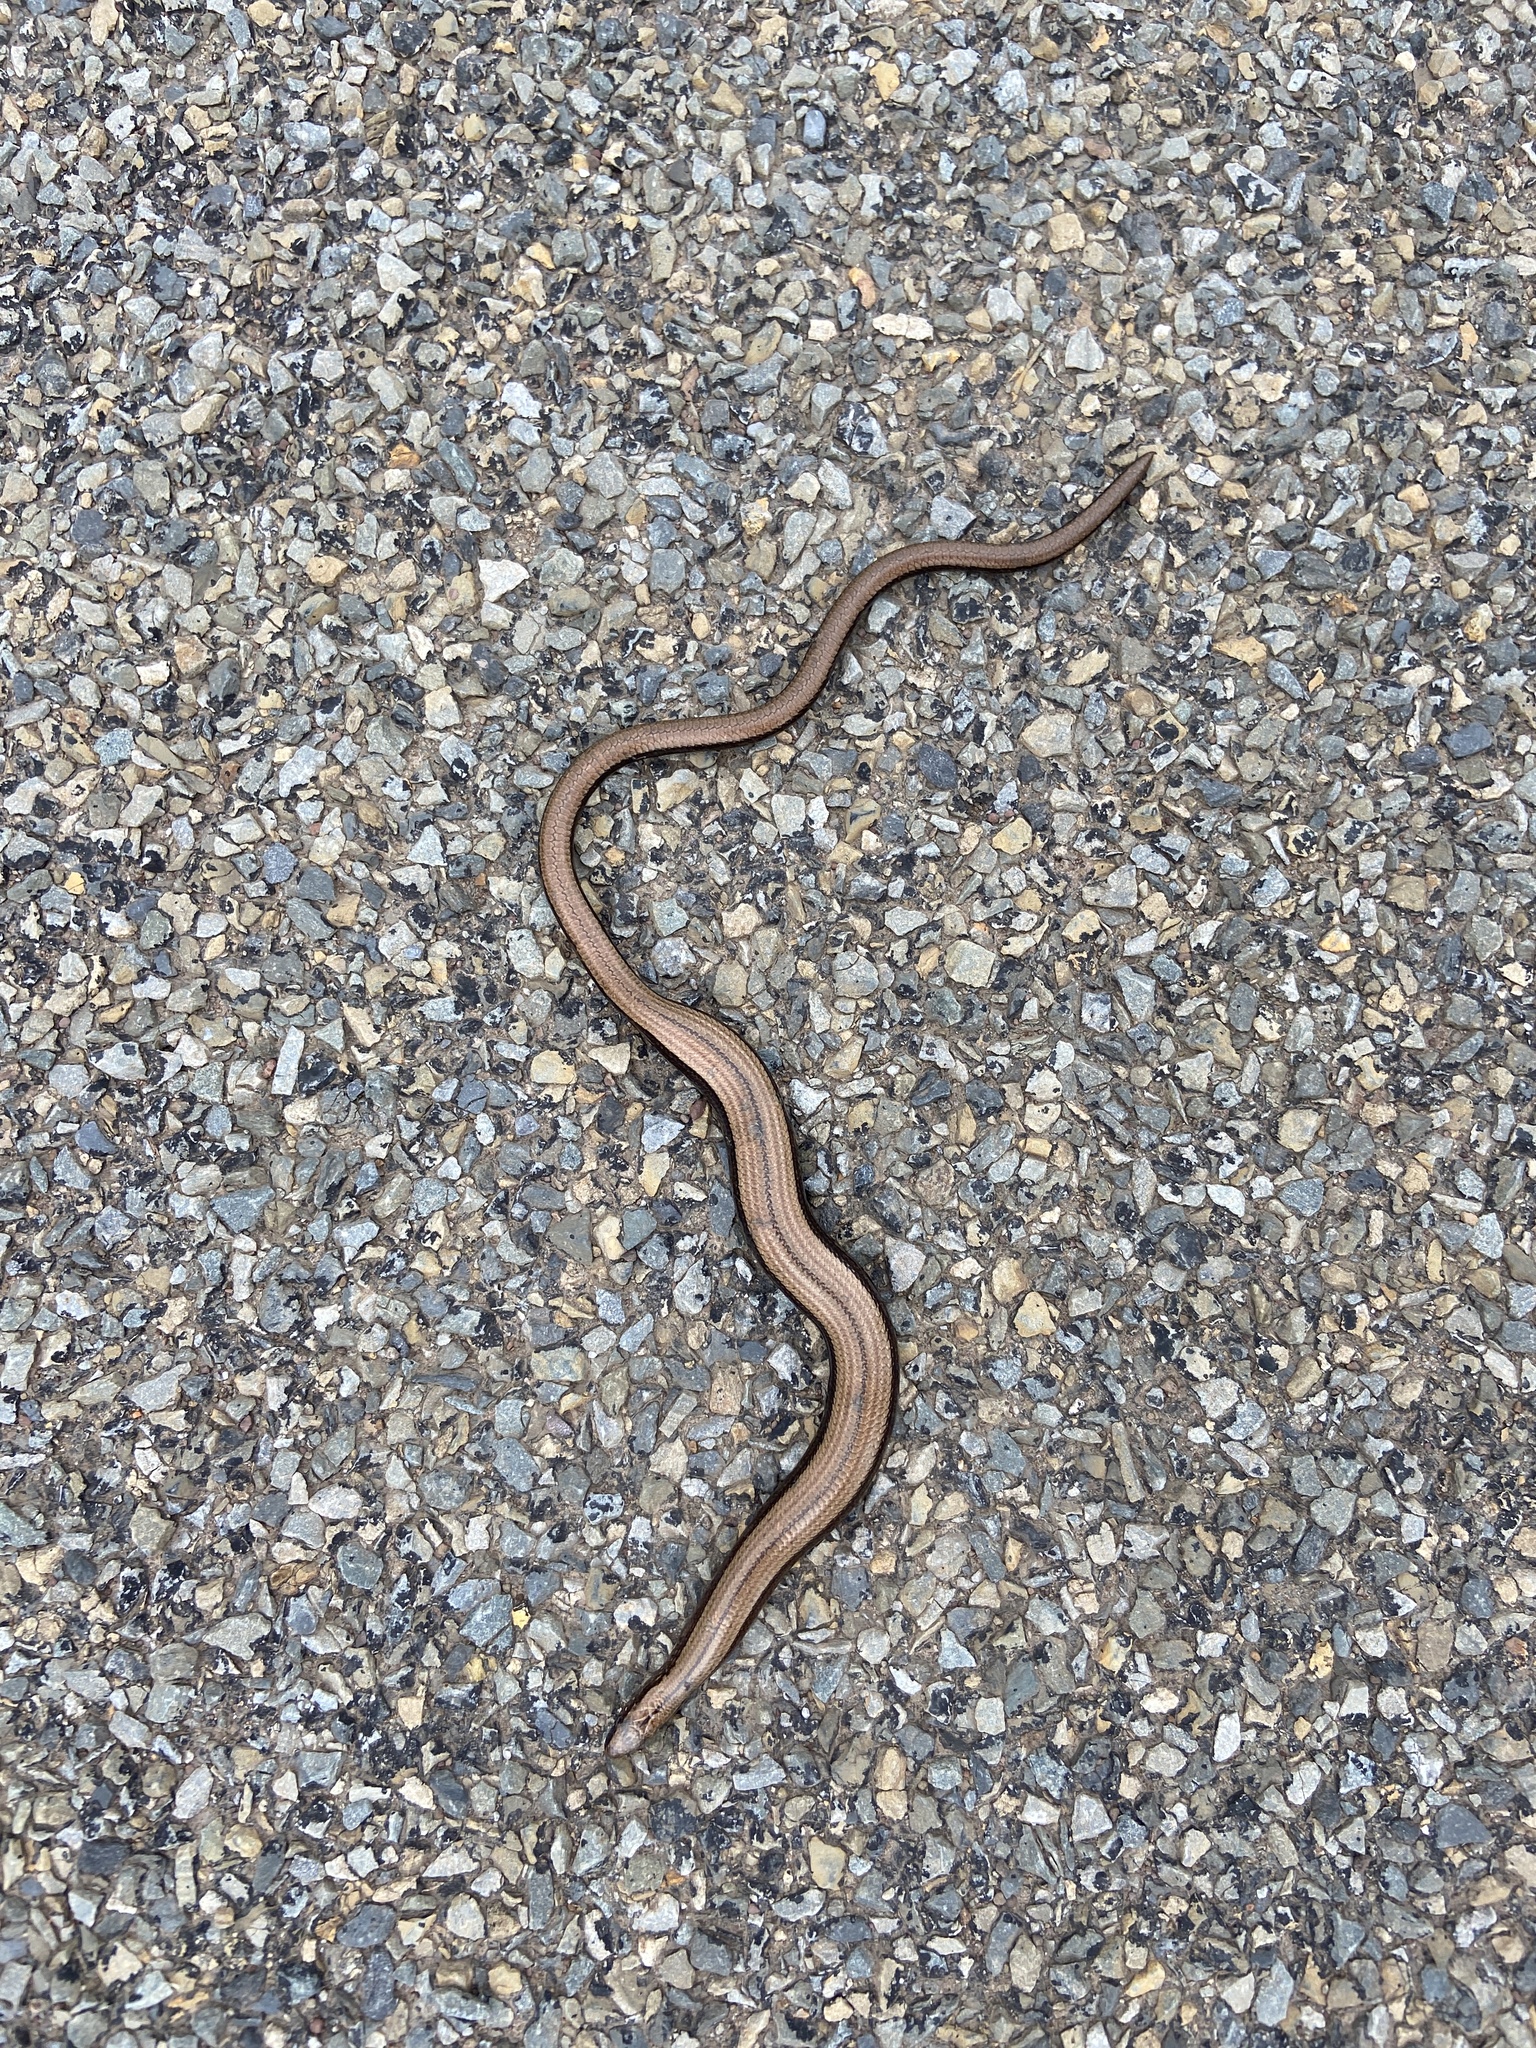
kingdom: Animalia
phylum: Chordata
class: Squamata
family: Anguidae
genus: Anguis
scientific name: Anguis fragilis
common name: Slow worm
